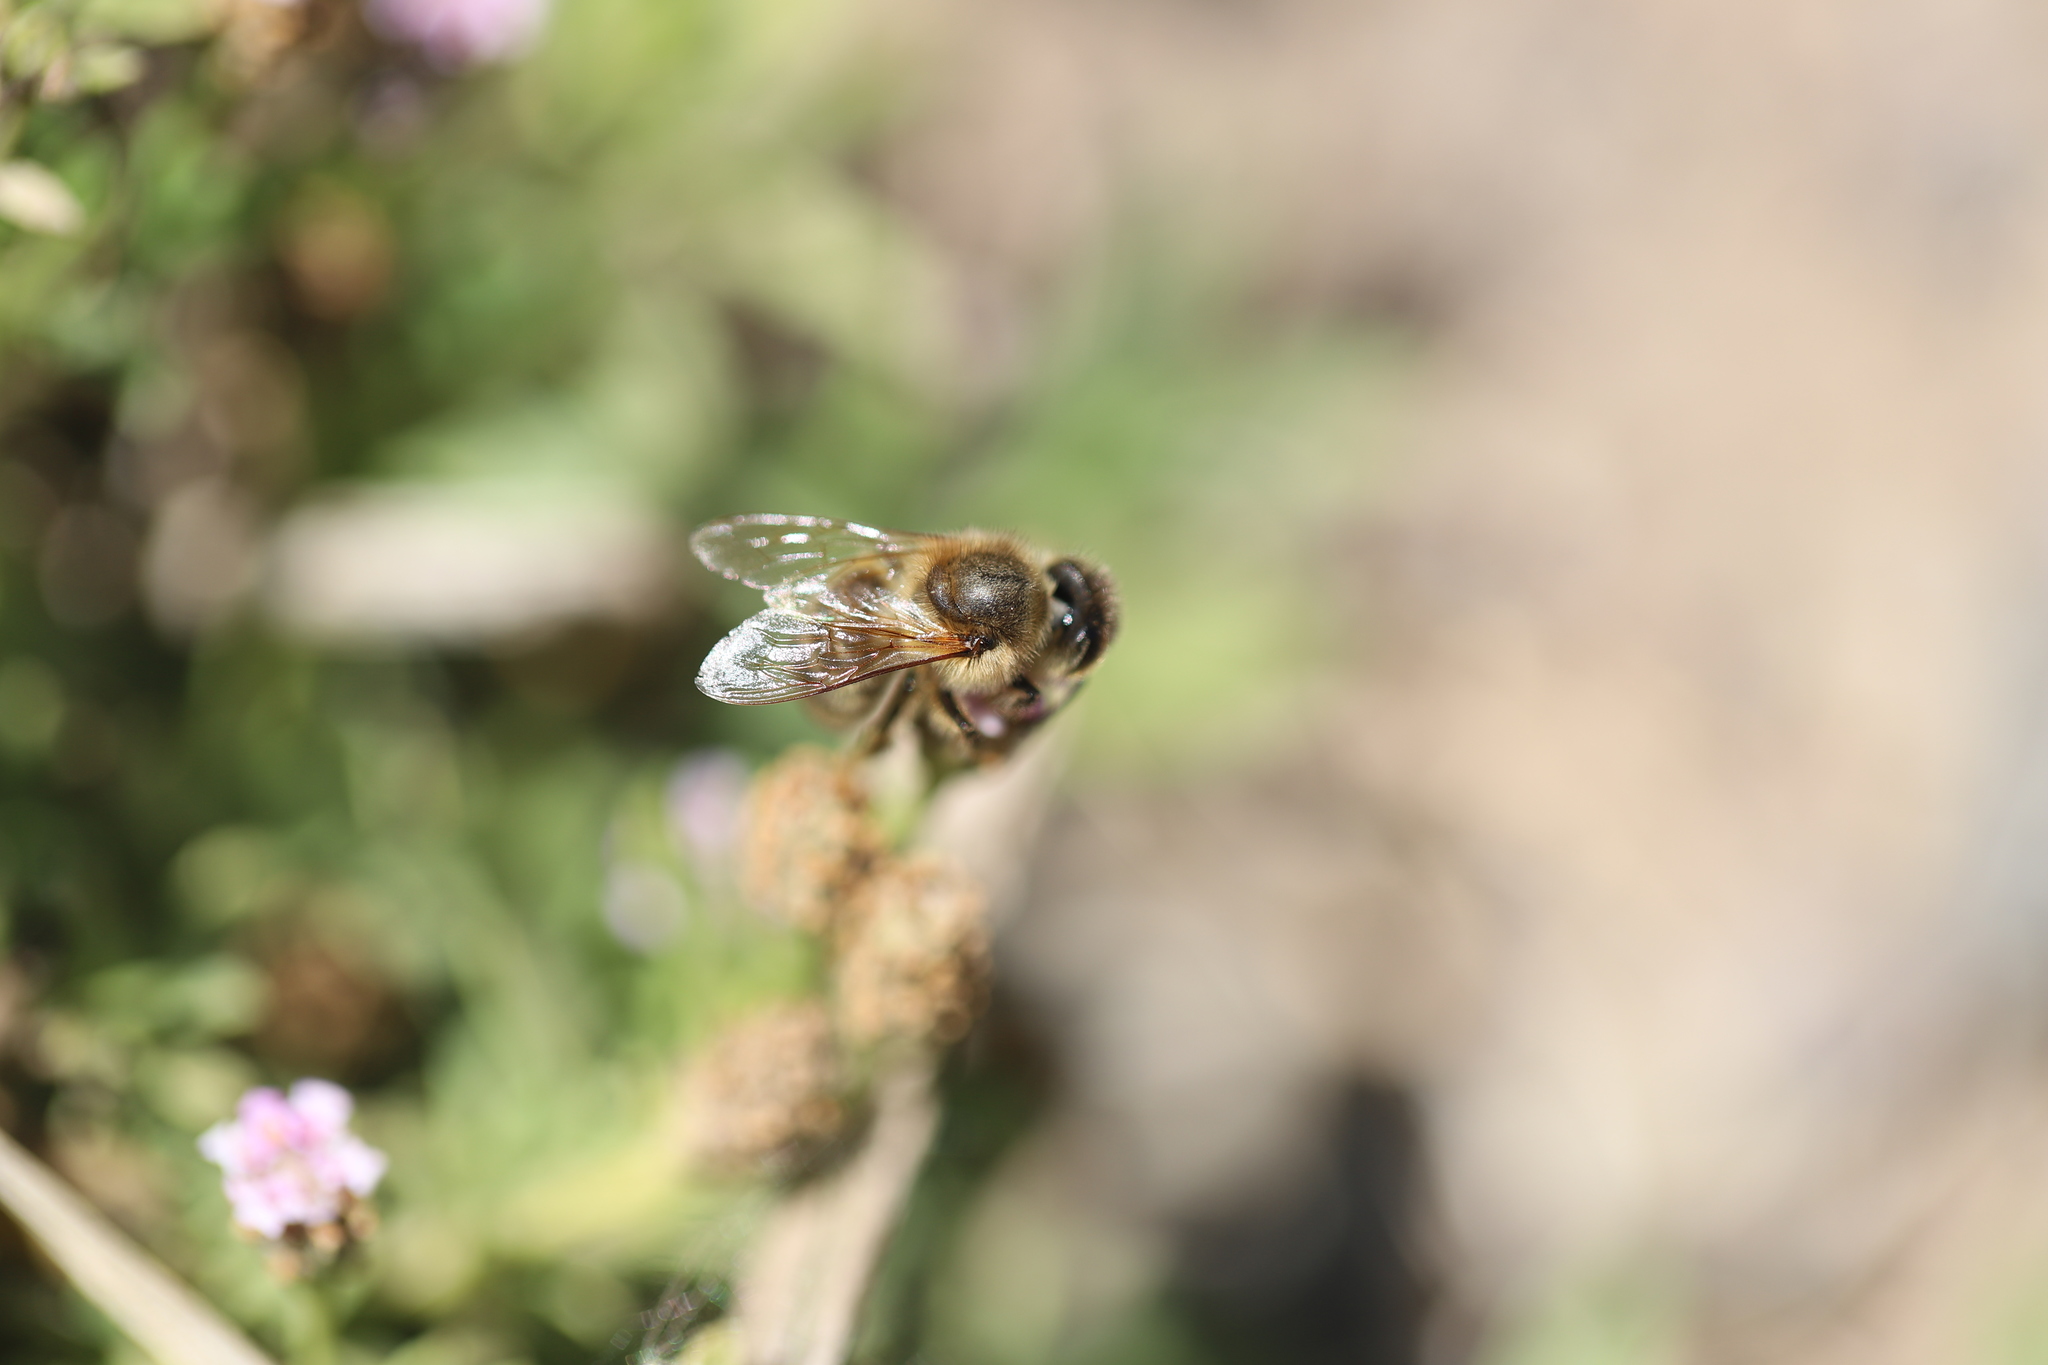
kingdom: Animalia
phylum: Arthropoda
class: Insecta
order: Hymenoptera
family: Apidae
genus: Apis
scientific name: Apis mellifera
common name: Honey bee
